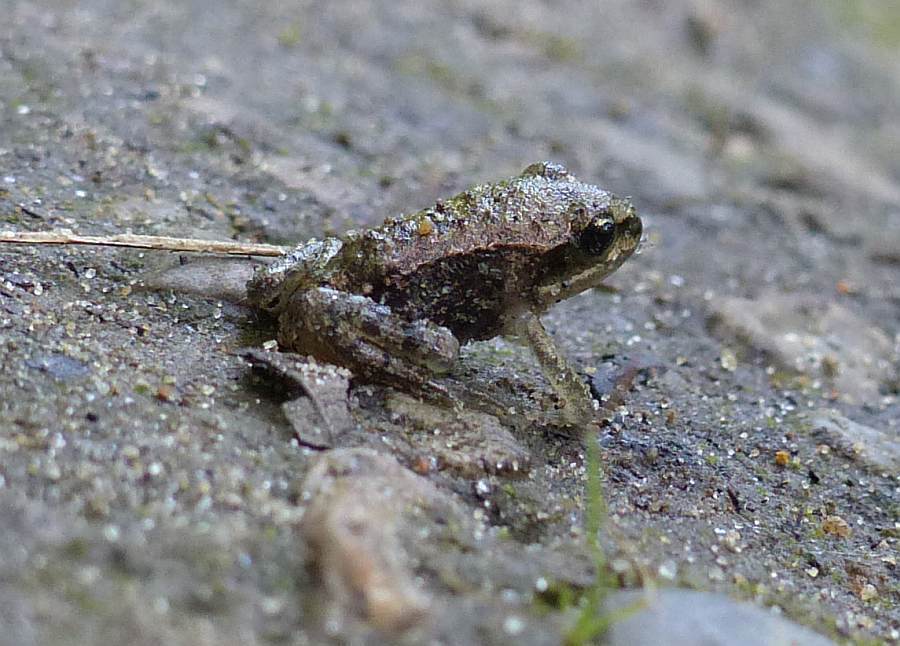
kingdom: Animalia
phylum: Chordata
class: Amphibia
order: Anura
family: Ranidae
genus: Lithobates
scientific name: Lithobates sylvaticus
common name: Wood frog
